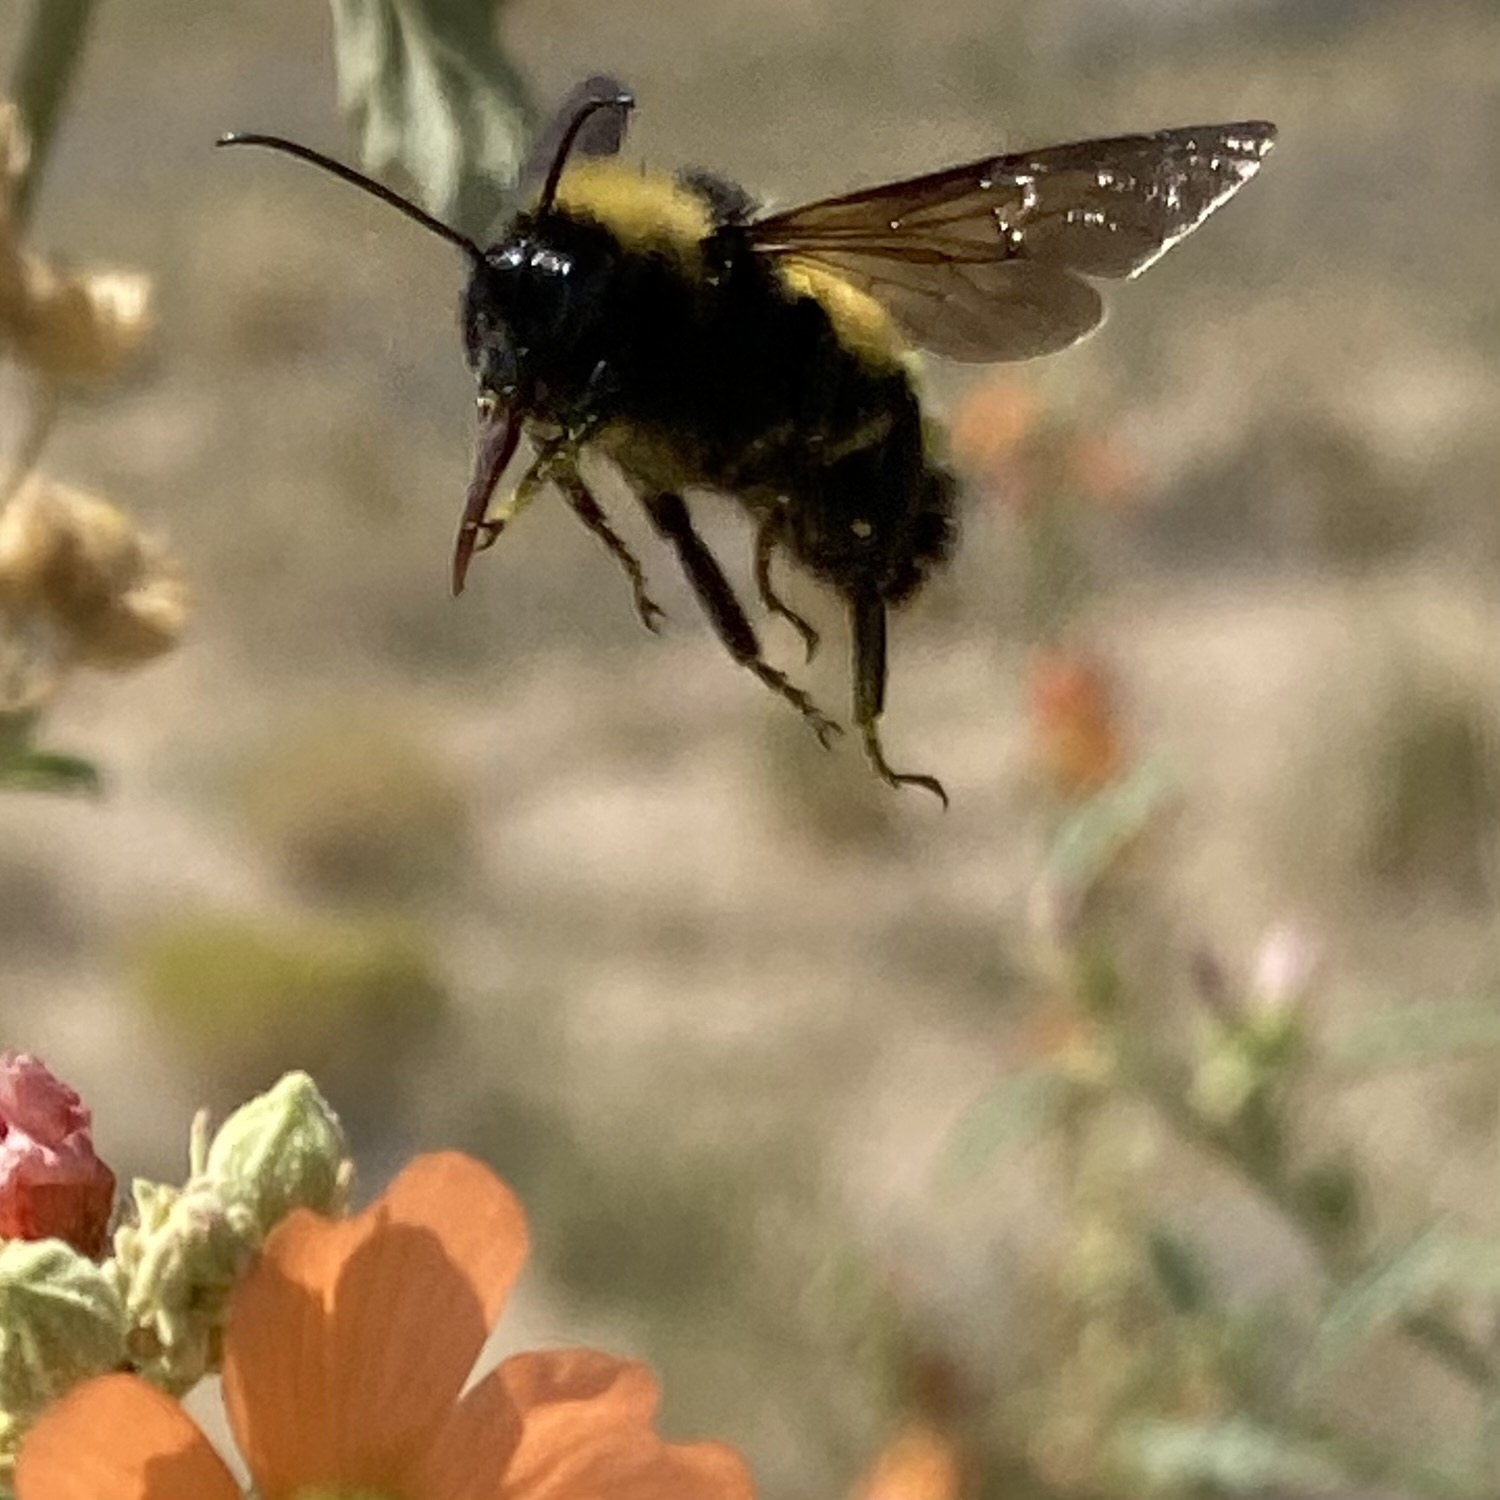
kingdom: Animalia
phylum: Arthropoda
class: Insecta
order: Hymenoptera
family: Apidae
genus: Bombus
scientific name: Bombus pensylvanicus
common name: Bumble bee
